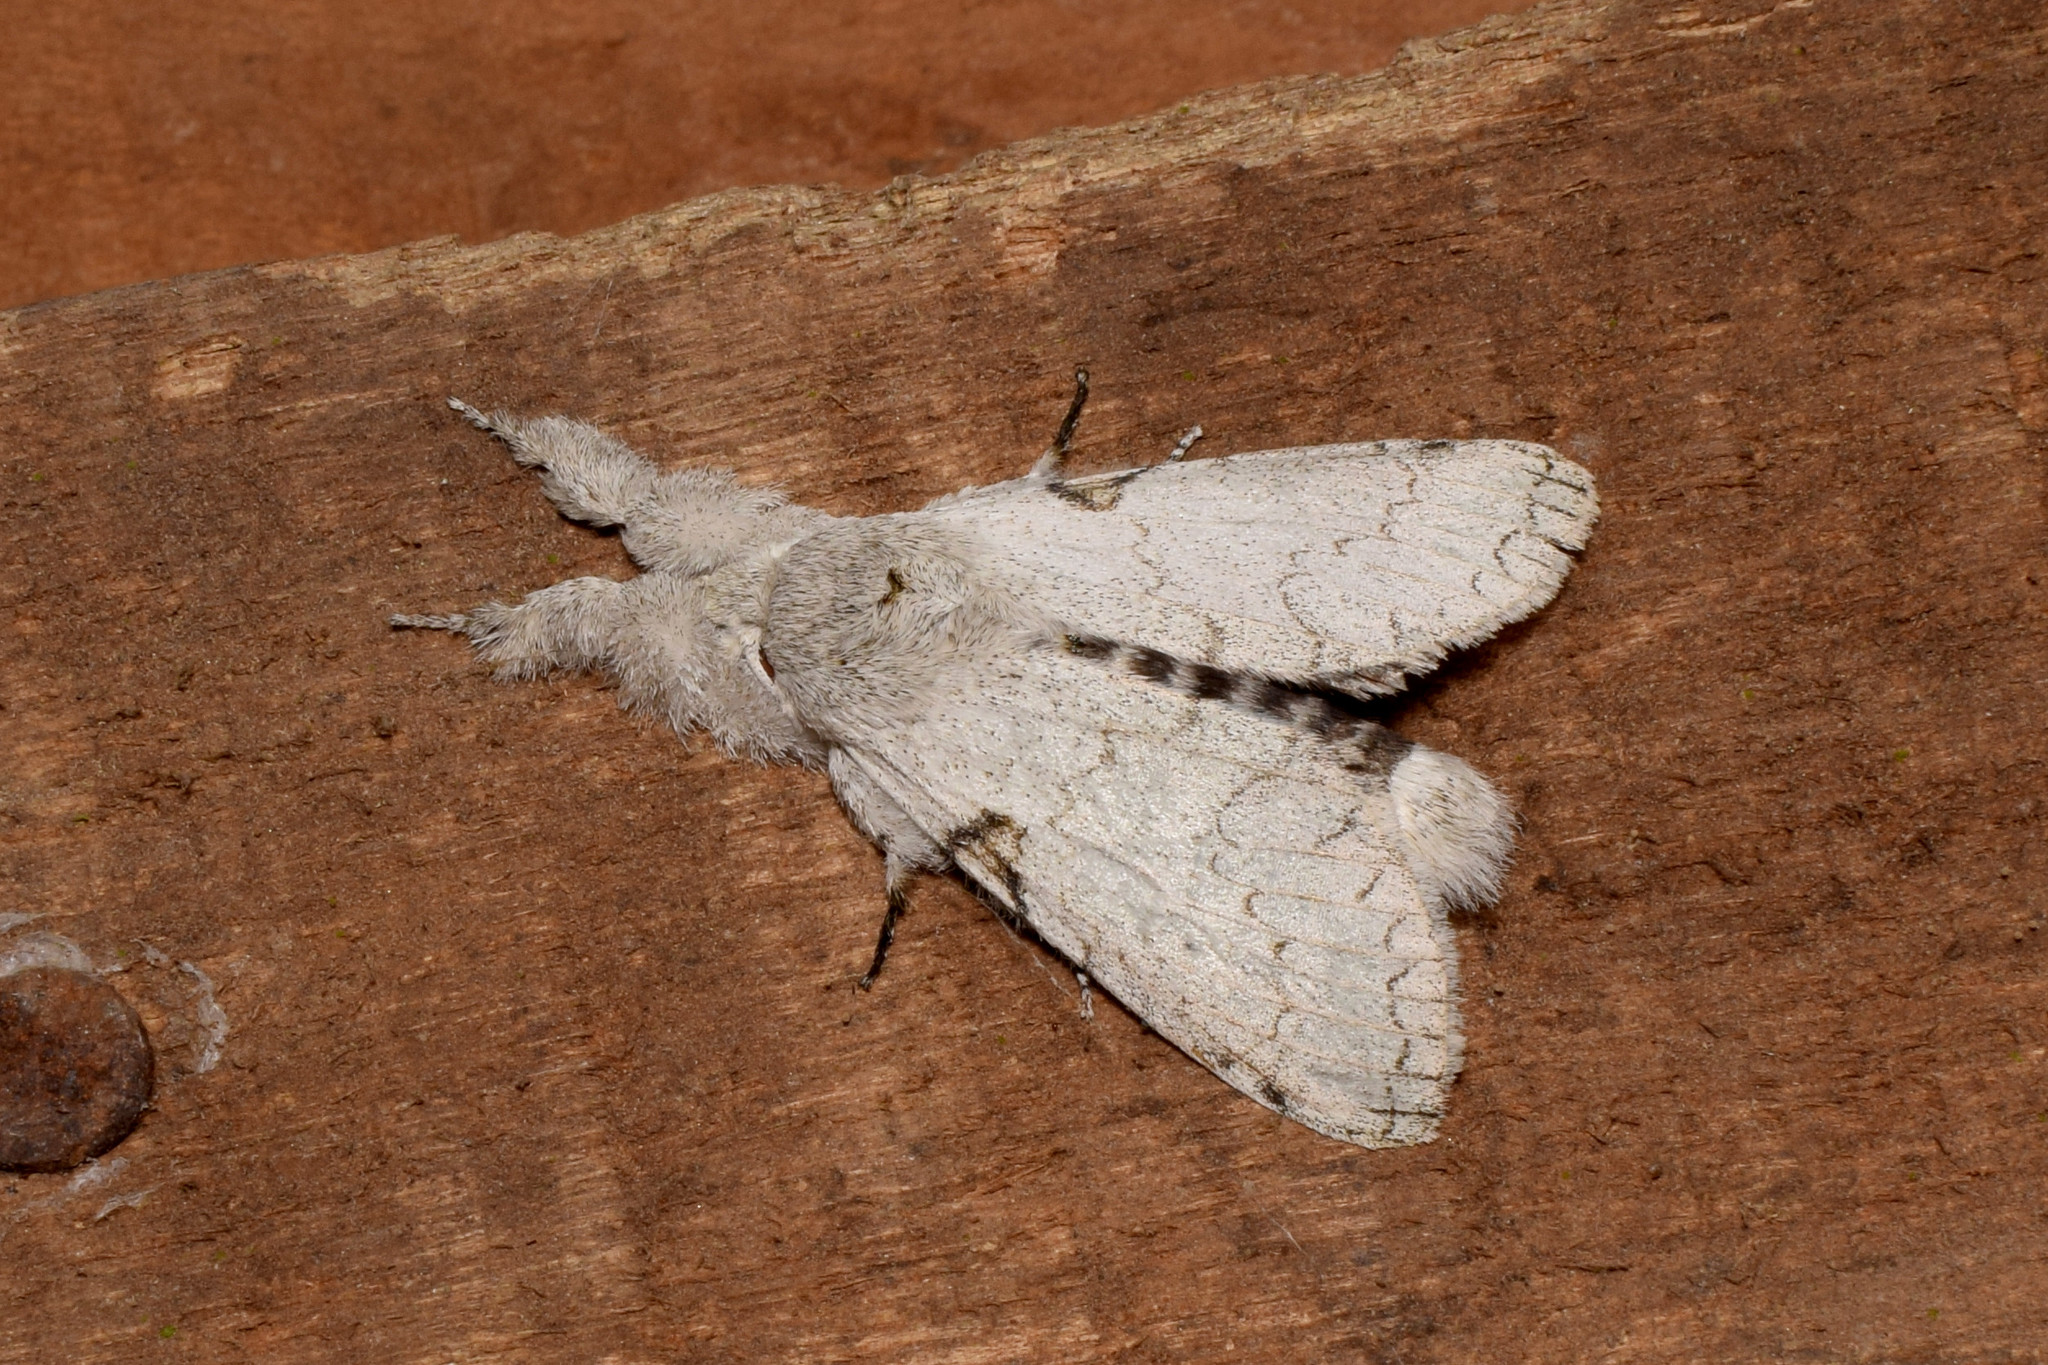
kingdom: Animalia
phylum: Arthropoda
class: Insecta
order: Lepidoptera
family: Erebidae
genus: Calliteara
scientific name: Calliteara
